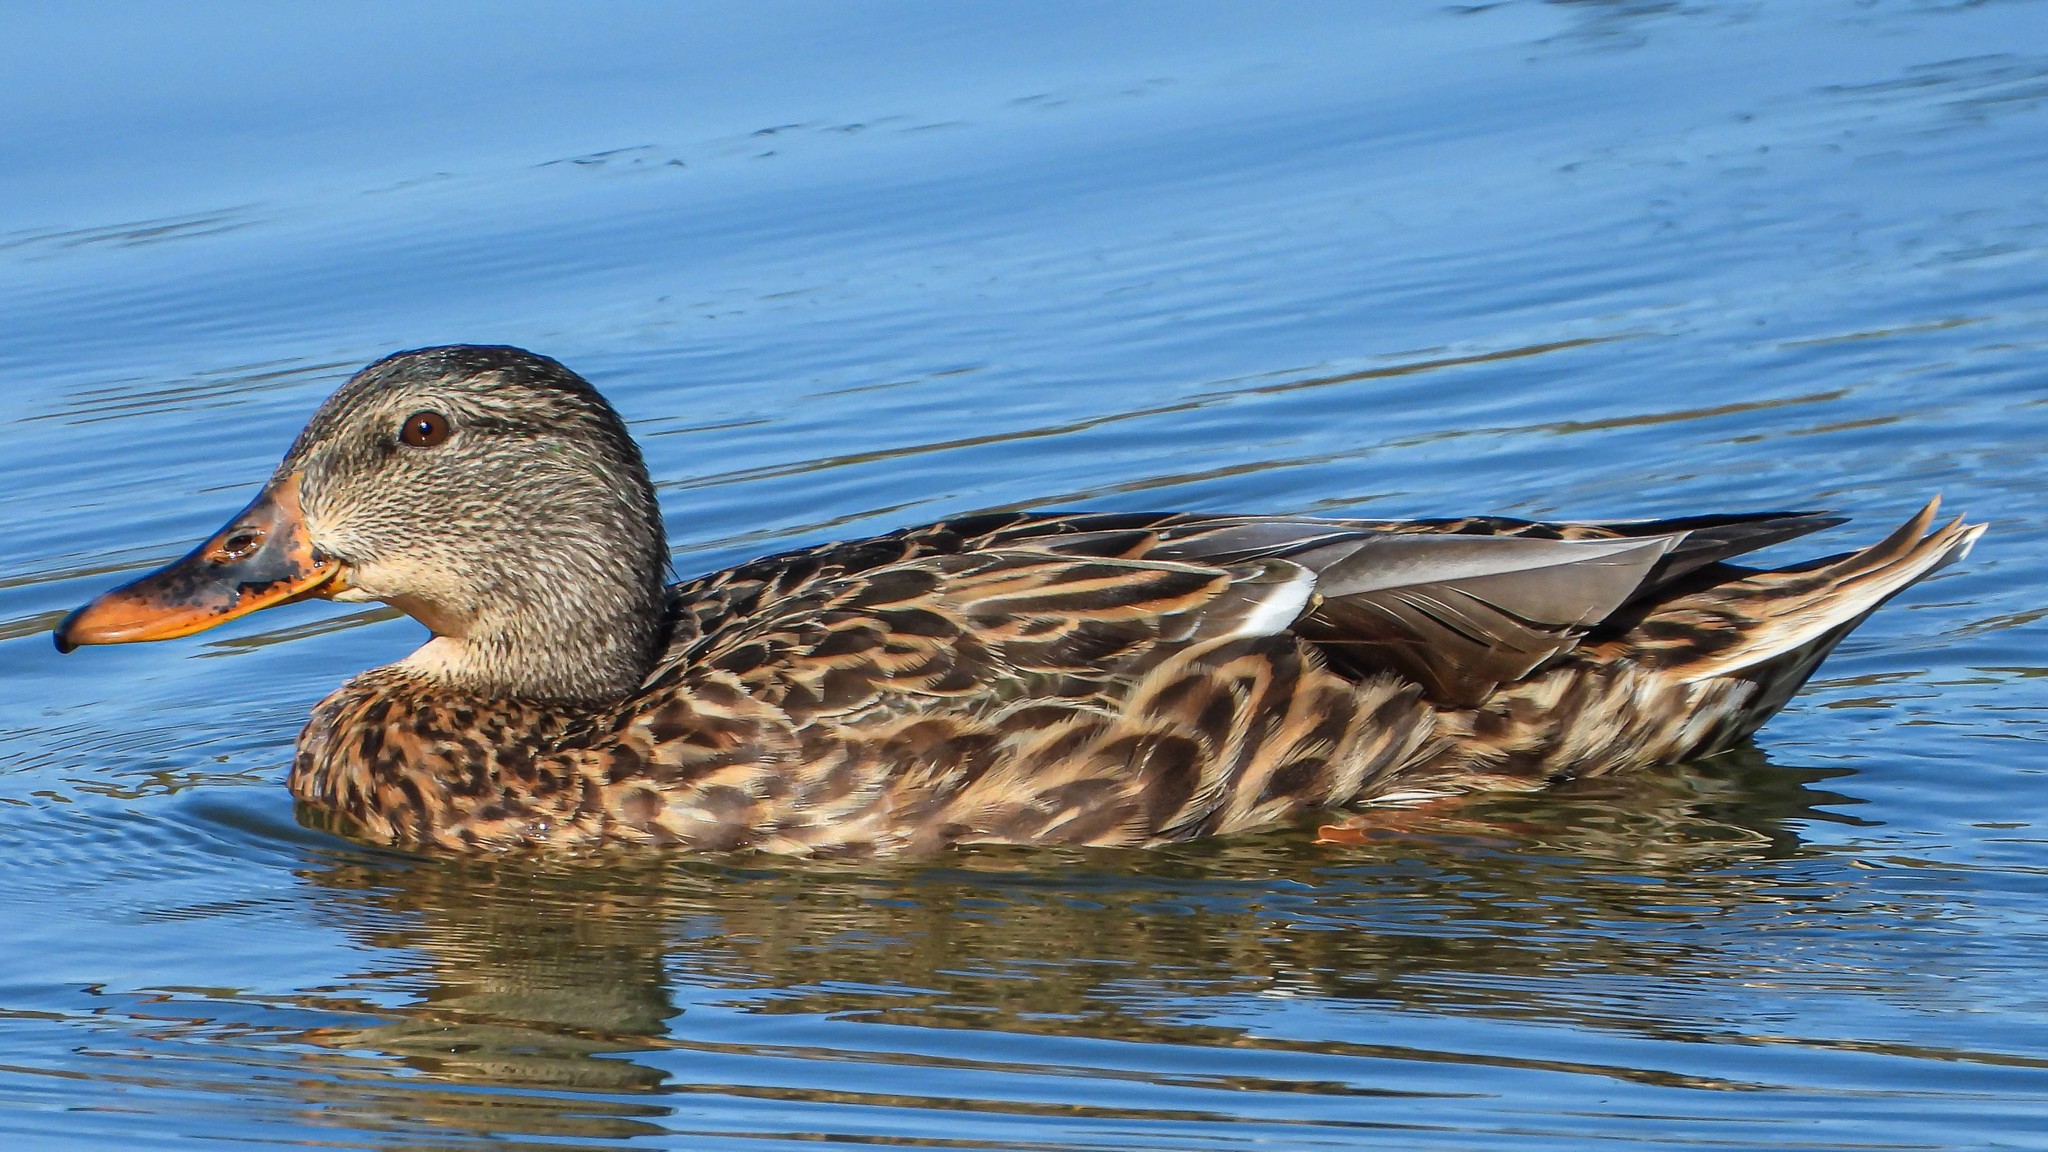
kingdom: Animalia
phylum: Chordata
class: Aves
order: Anseriformes
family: Anatidae
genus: Anas
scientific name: Anas platyrhynchos
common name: Mallard
